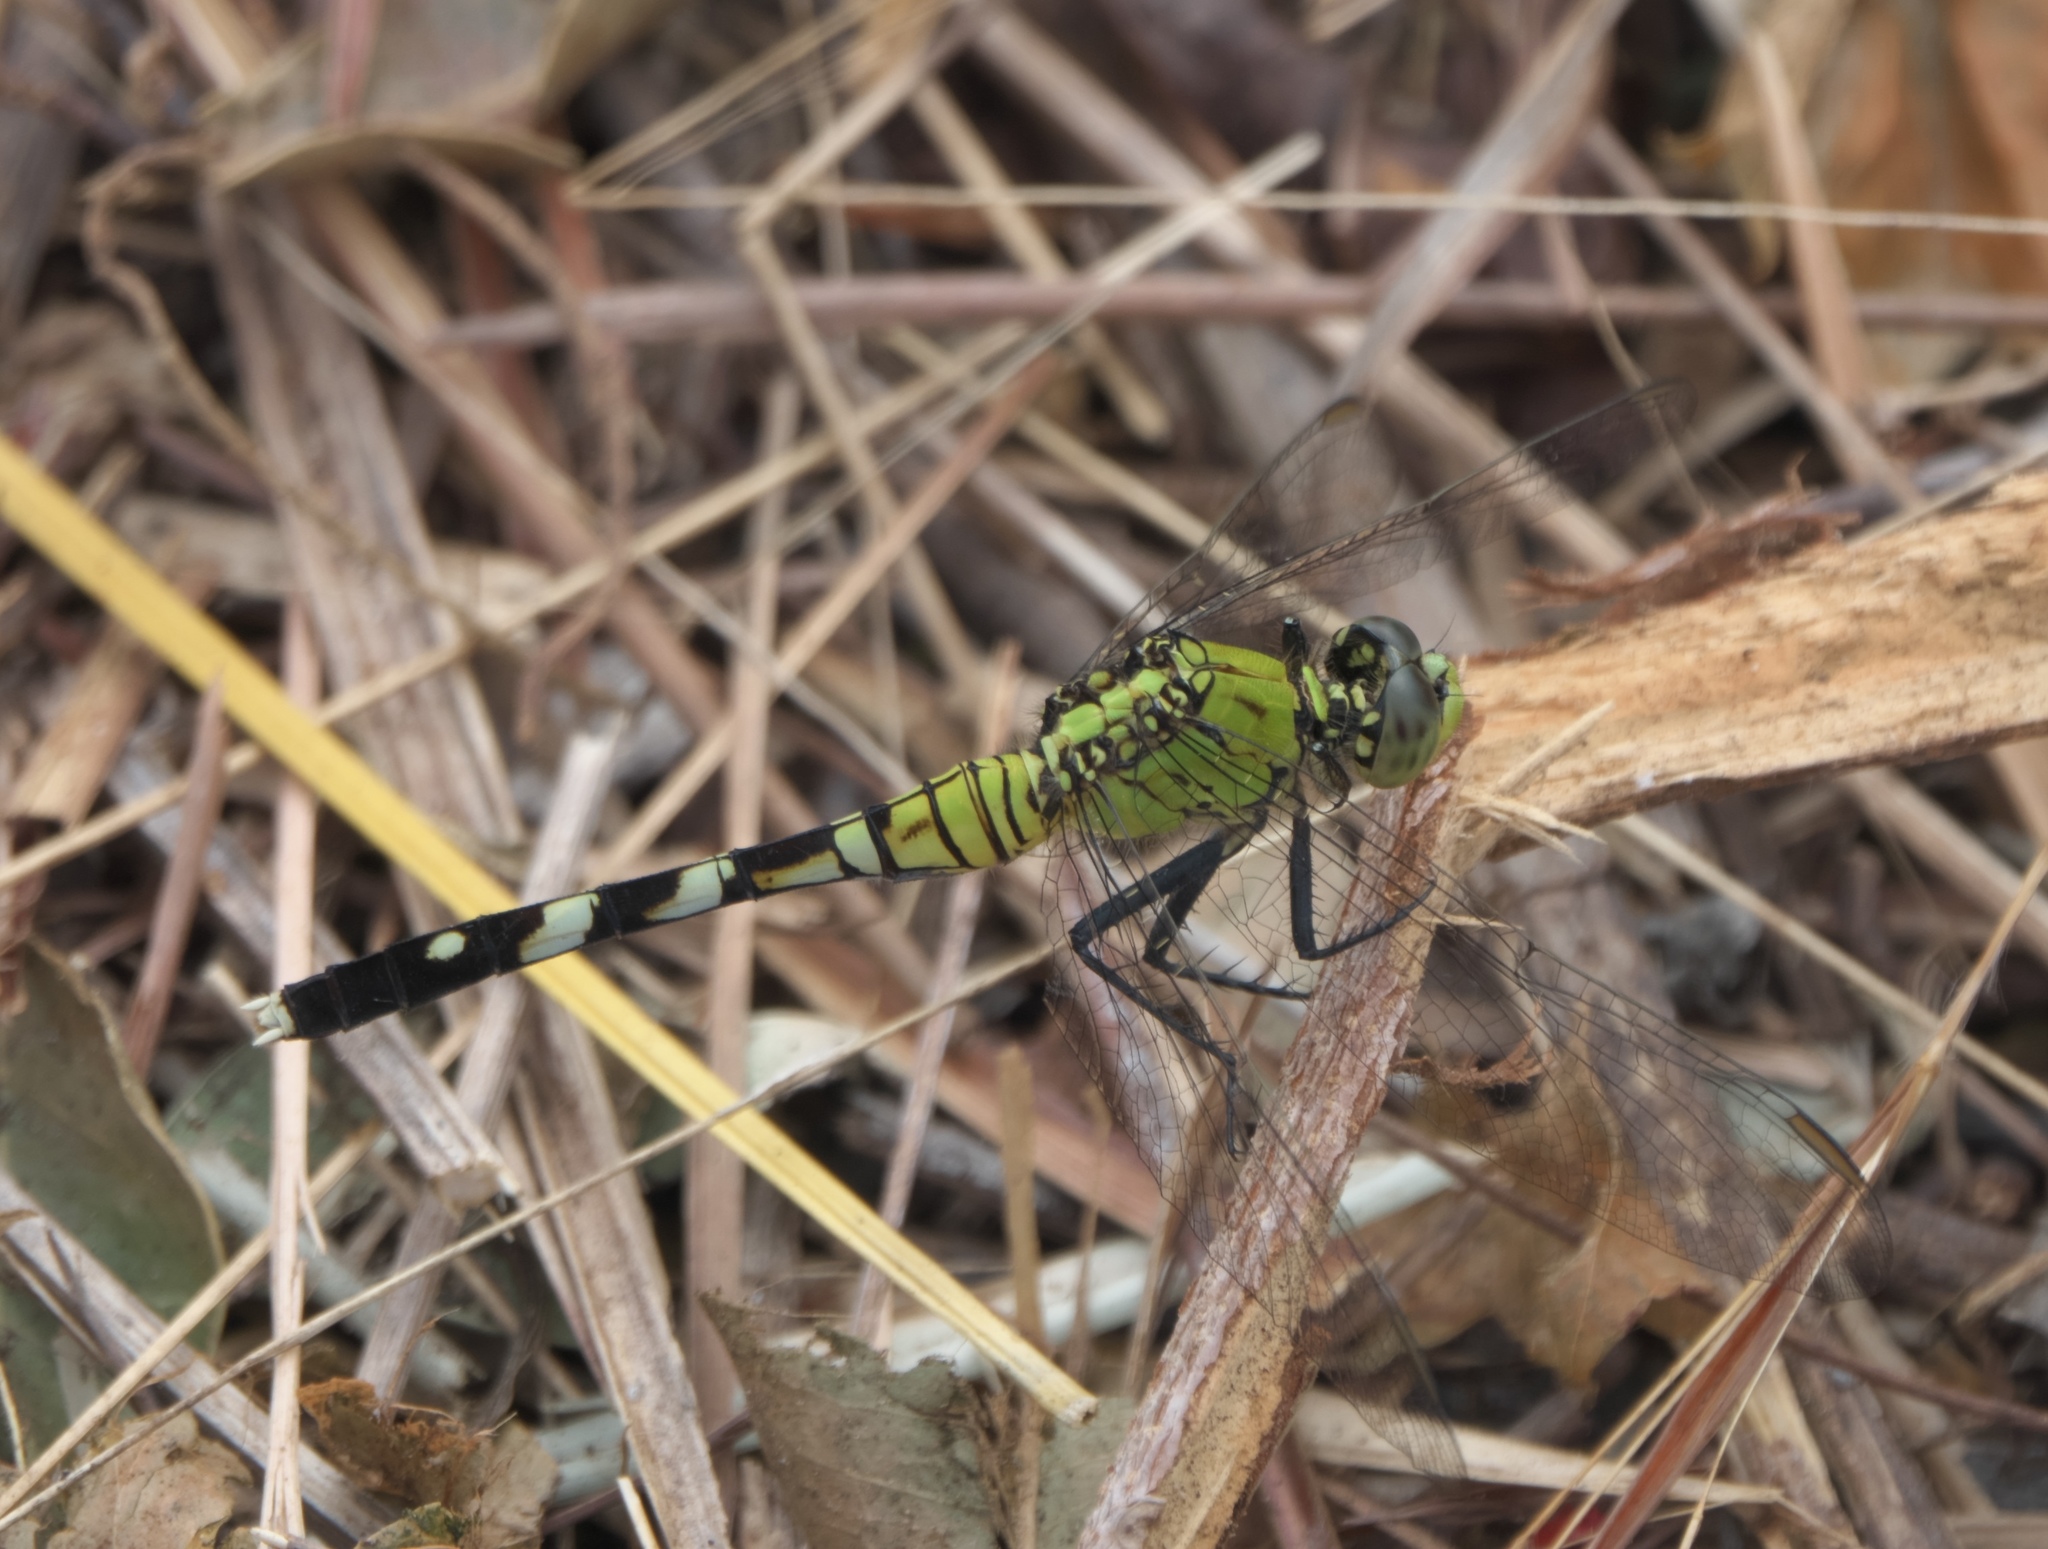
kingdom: Animalia
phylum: Arthropoda
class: Insecta
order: Odonata
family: Libellulidae
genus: Erythemis
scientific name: Erythemis simplicicollis
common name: Eastern pondhawk
